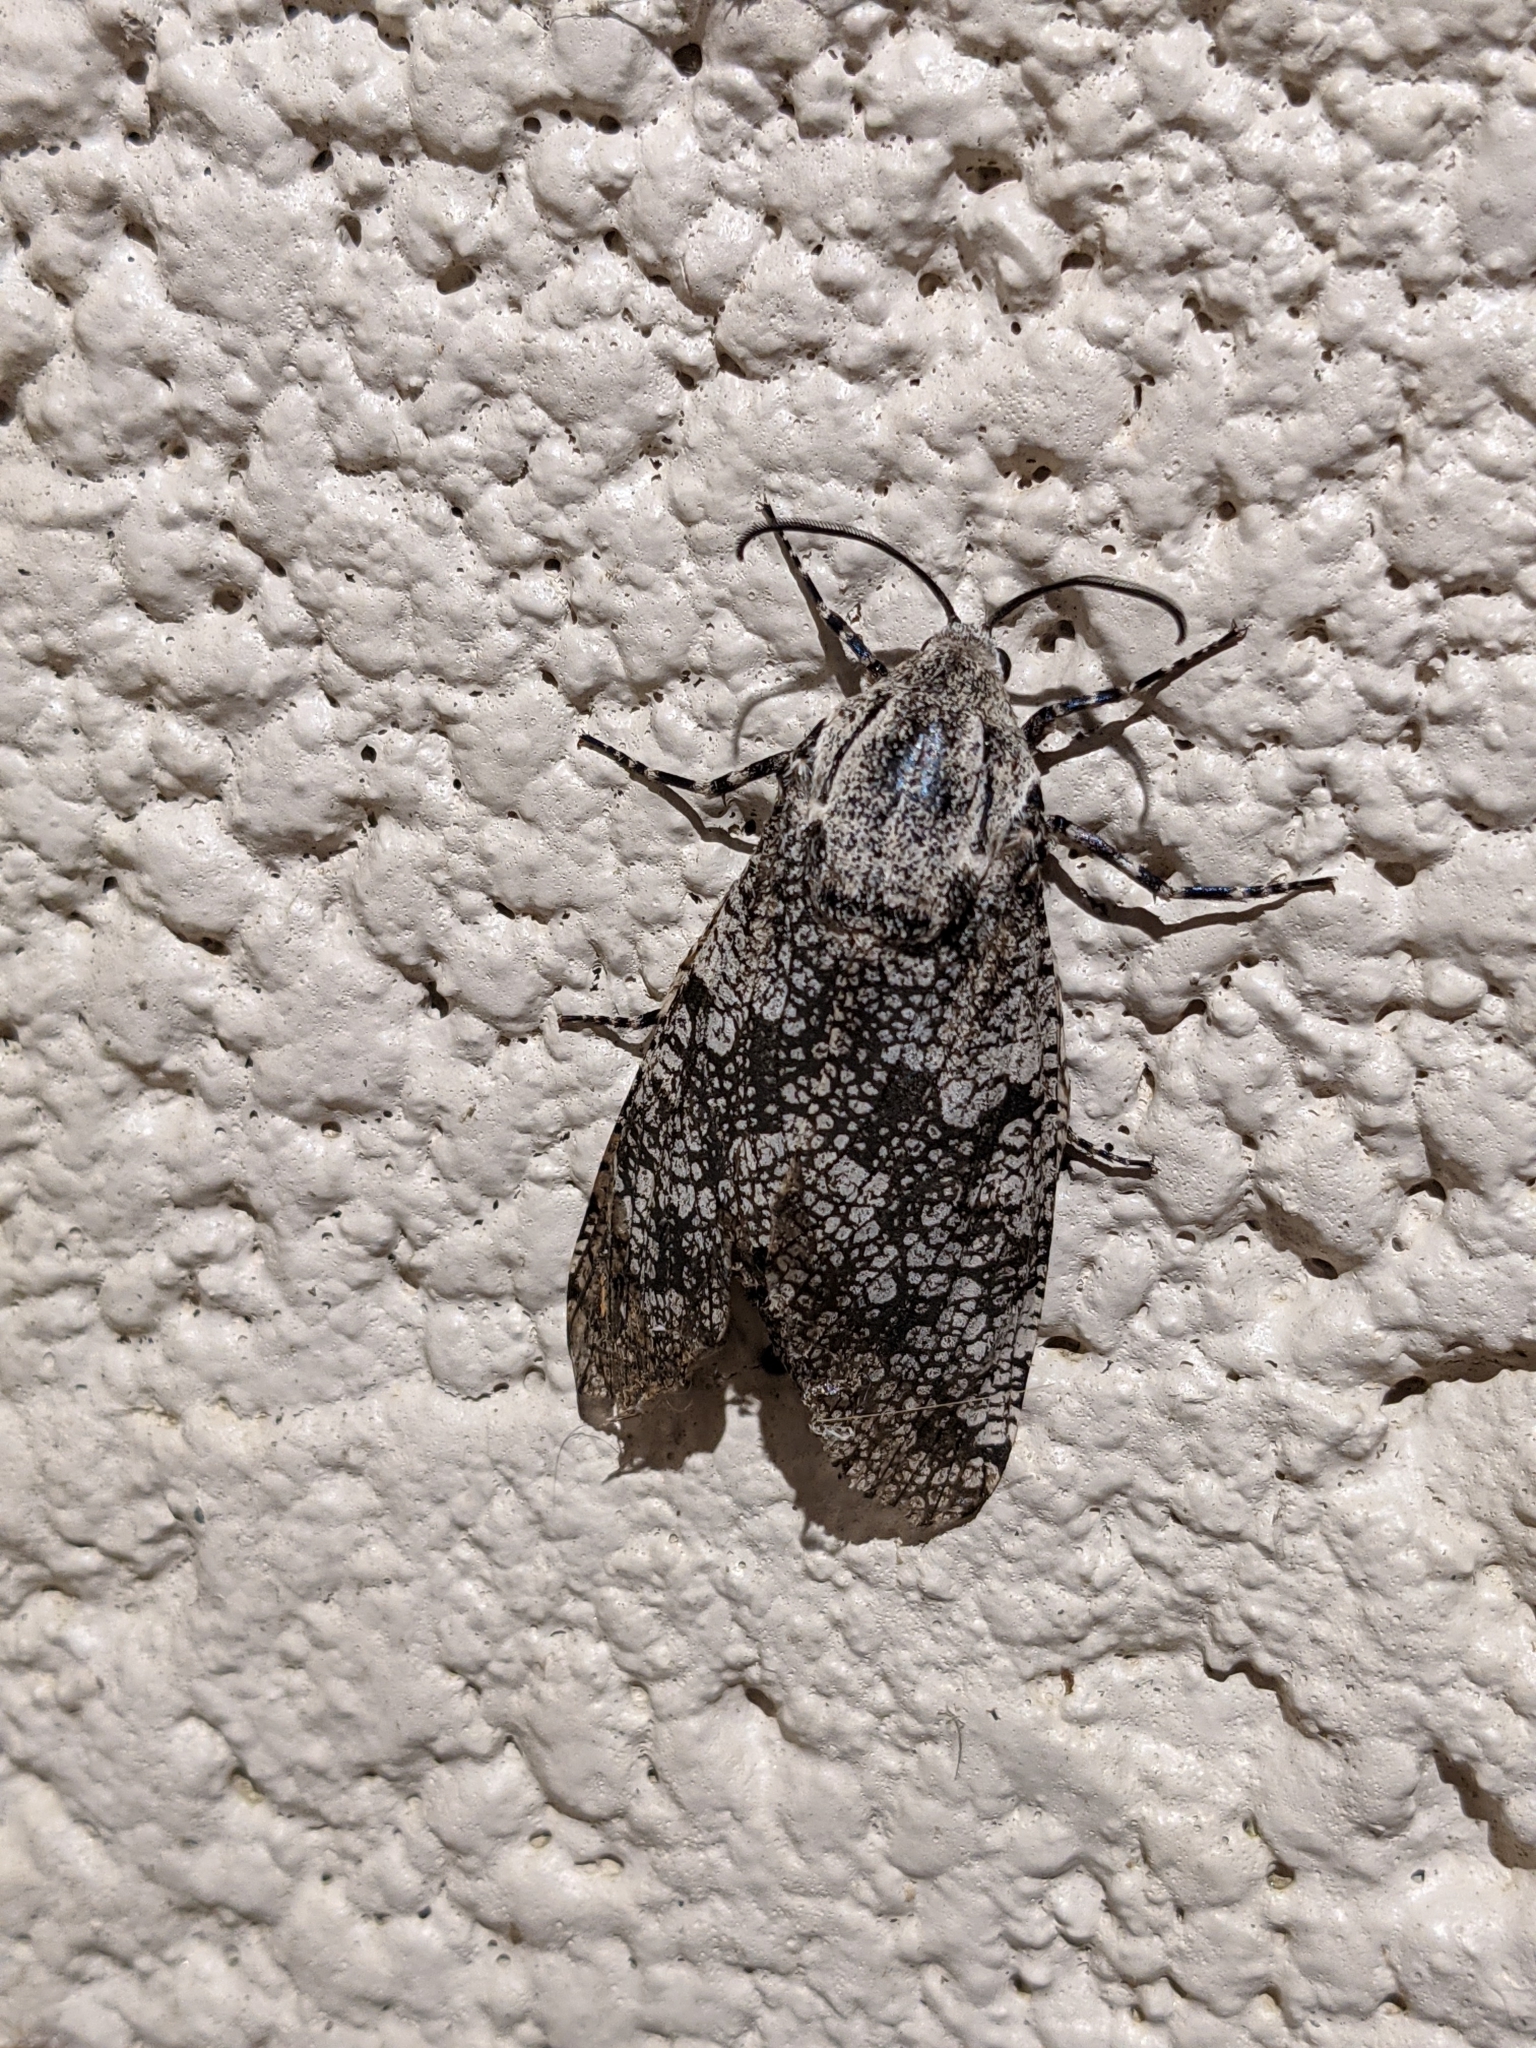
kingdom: Animalia
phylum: Arthropoda
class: Insecta
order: Lepidoptera
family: Cossidae
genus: Prionoxystus
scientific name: Prionoxystus robiniae
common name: Carpenterworm
